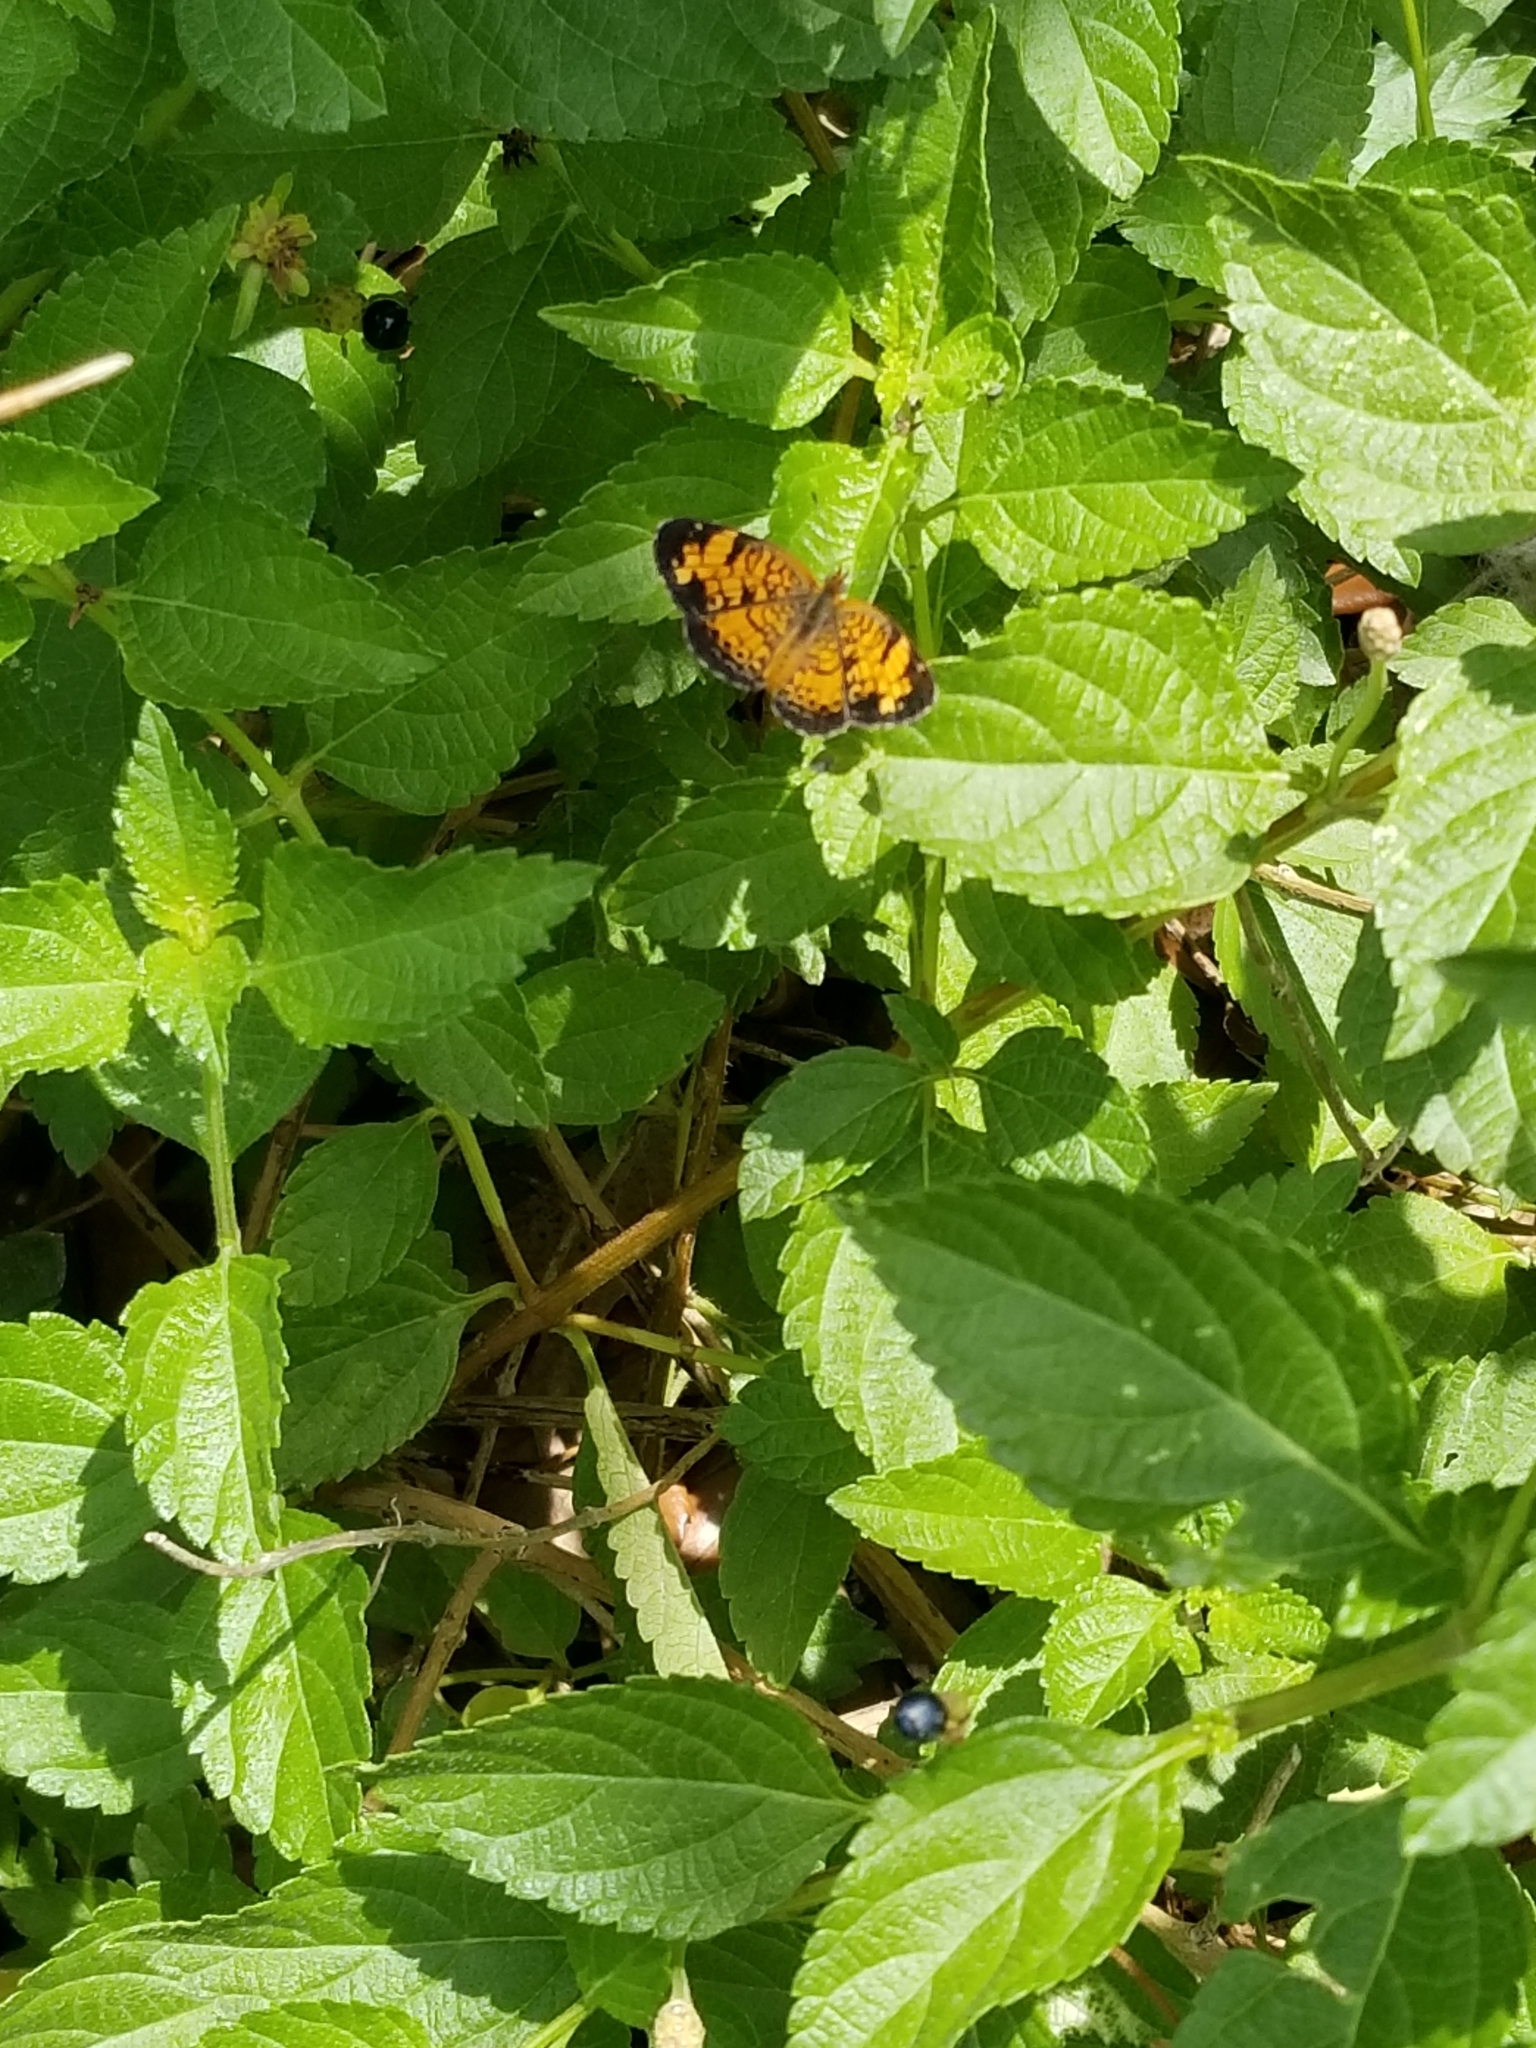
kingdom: Animalia
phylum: Arthropoda
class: Insecta
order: Lepidoptera
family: Nymphalidae
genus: Phyciodes
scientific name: Phyciodes tharos
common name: Pearl crescent
